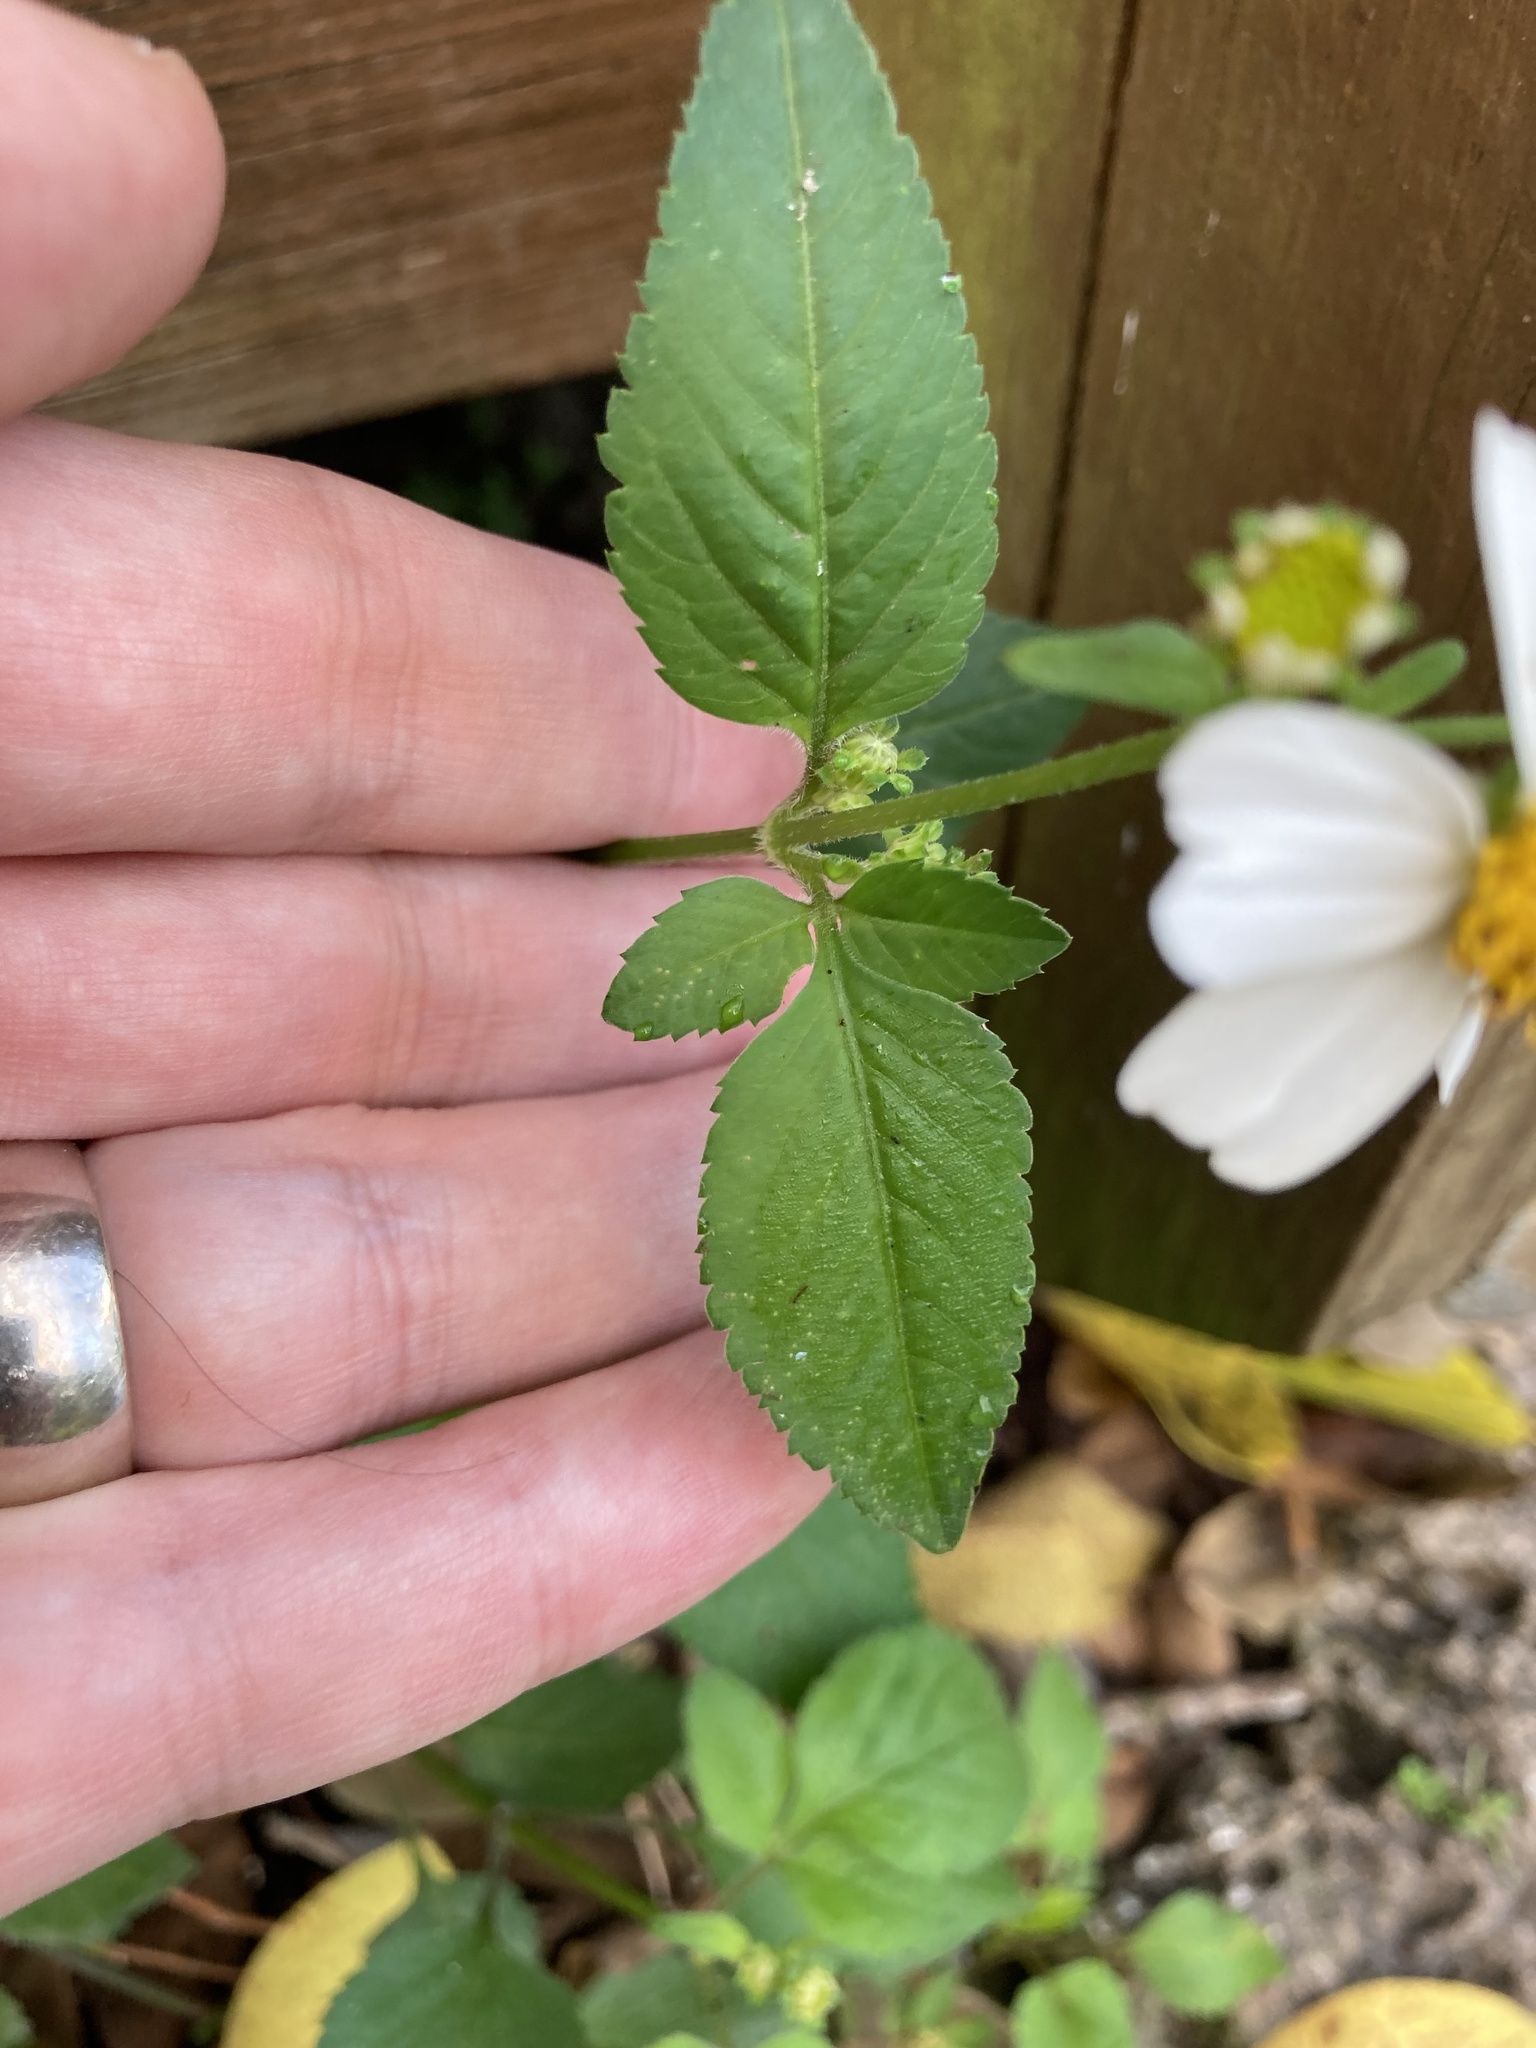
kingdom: Plantae
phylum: Tracheophyta
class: Magnoliopsida
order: Asterales
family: Asteraceae
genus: Bidens
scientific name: Bidens alba
